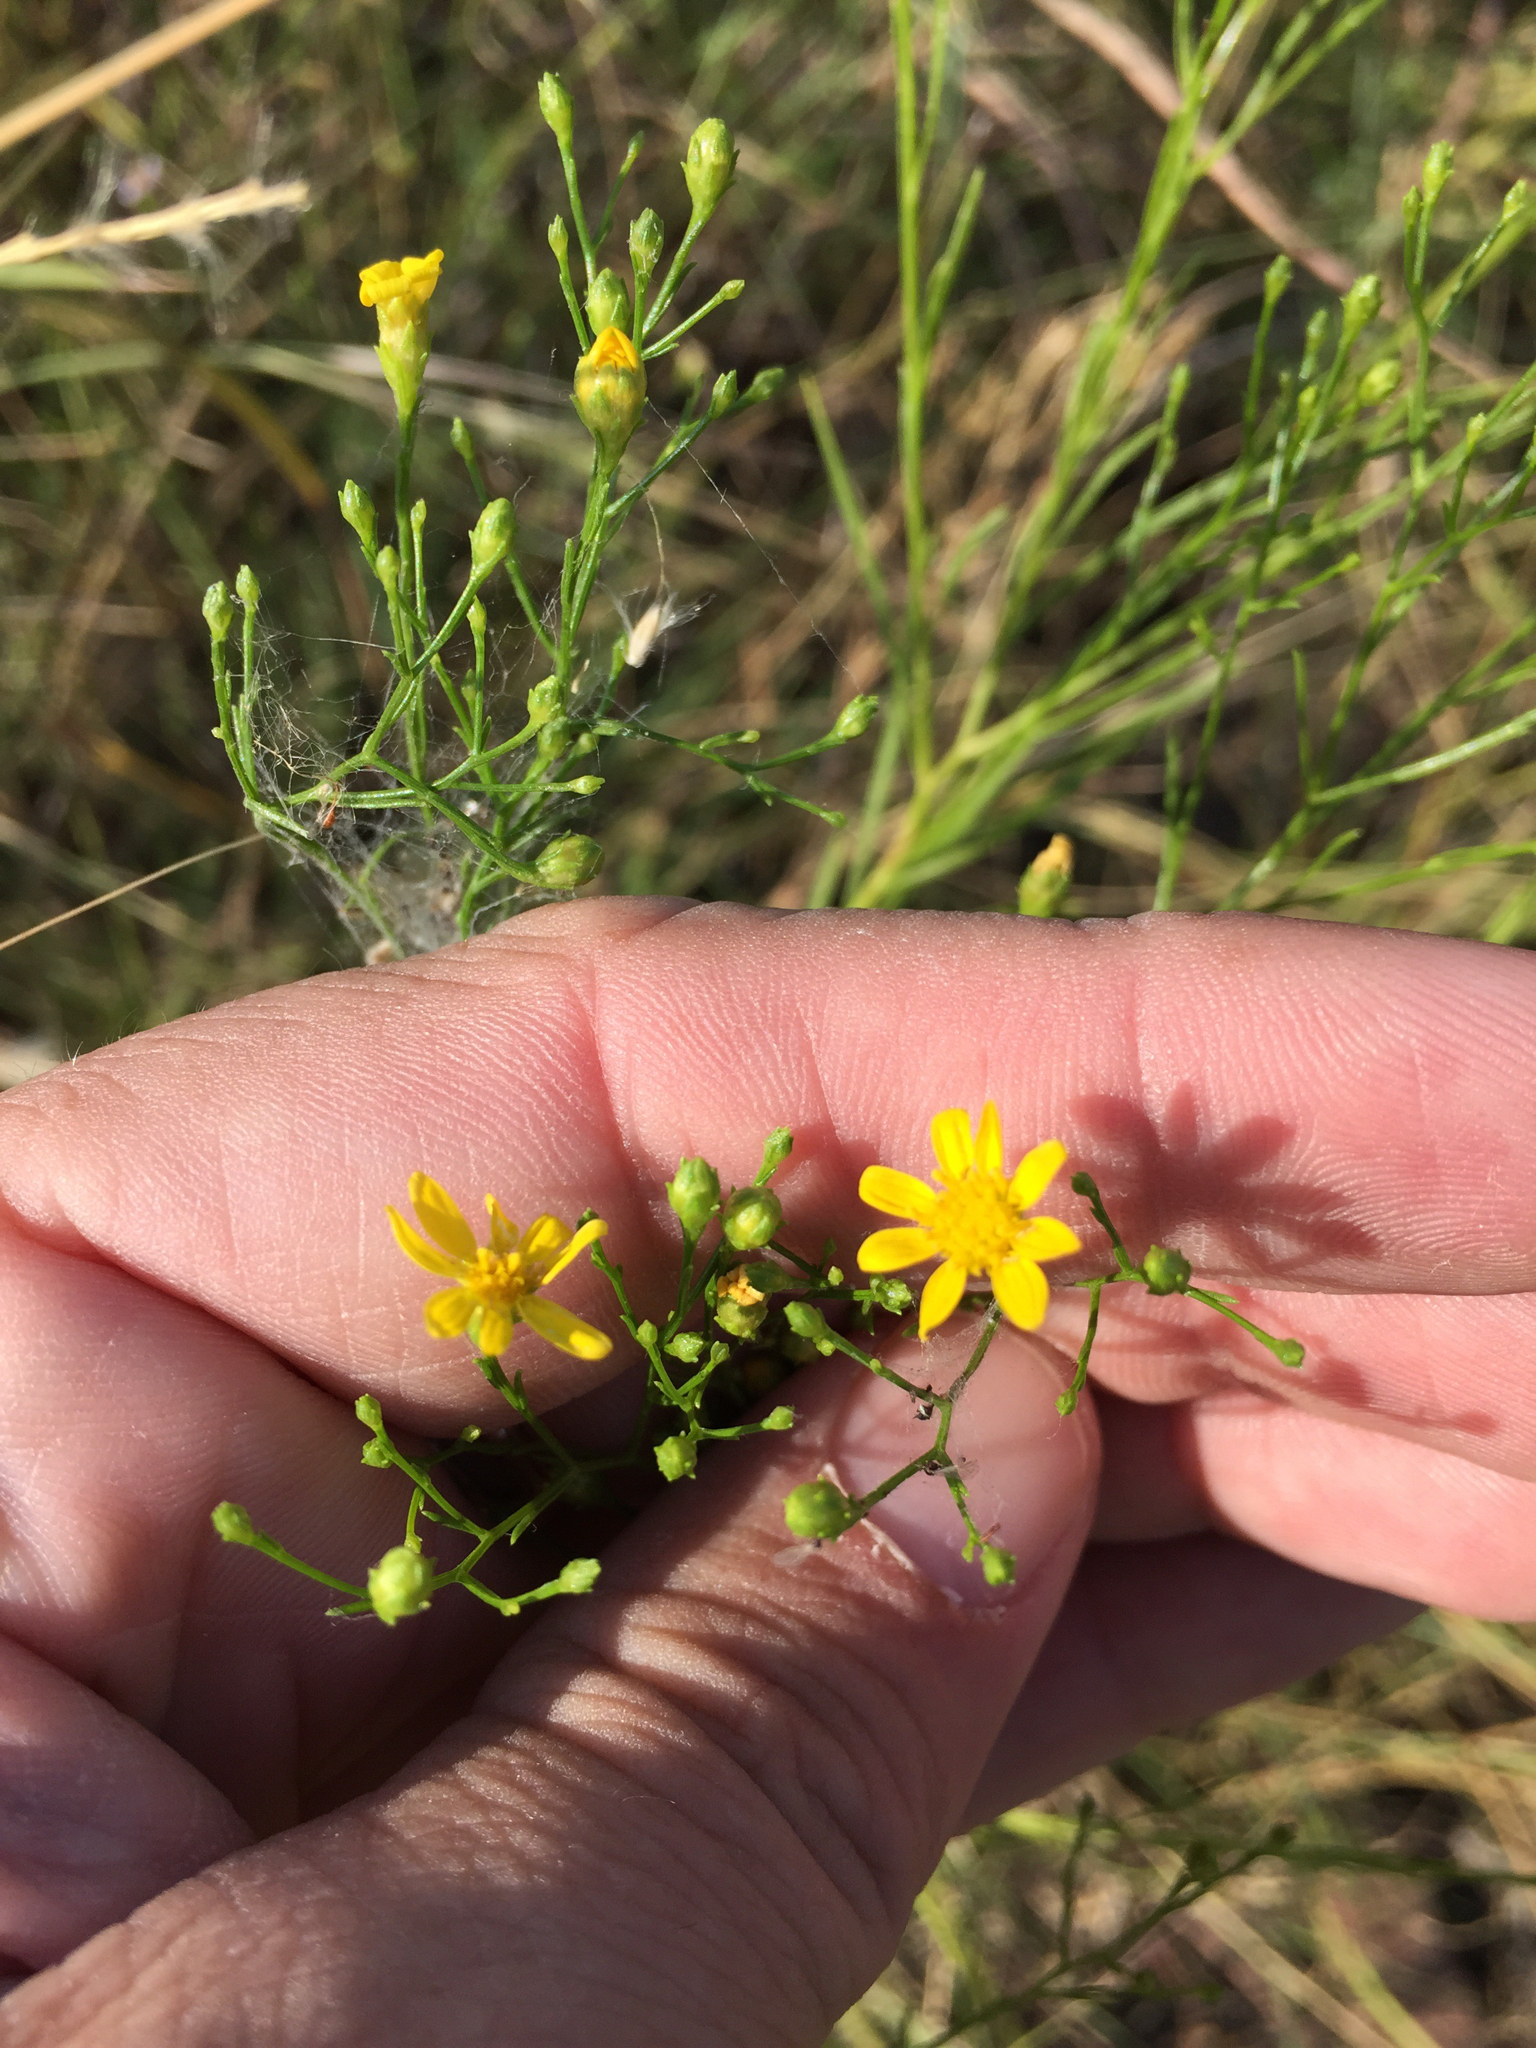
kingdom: Plantae
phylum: Tracheophyta
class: Magnoliopsida
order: Asterales
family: Asteraceae
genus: Amphiachyris
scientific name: Amphiachyris dracunculoides
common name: Broomweed
